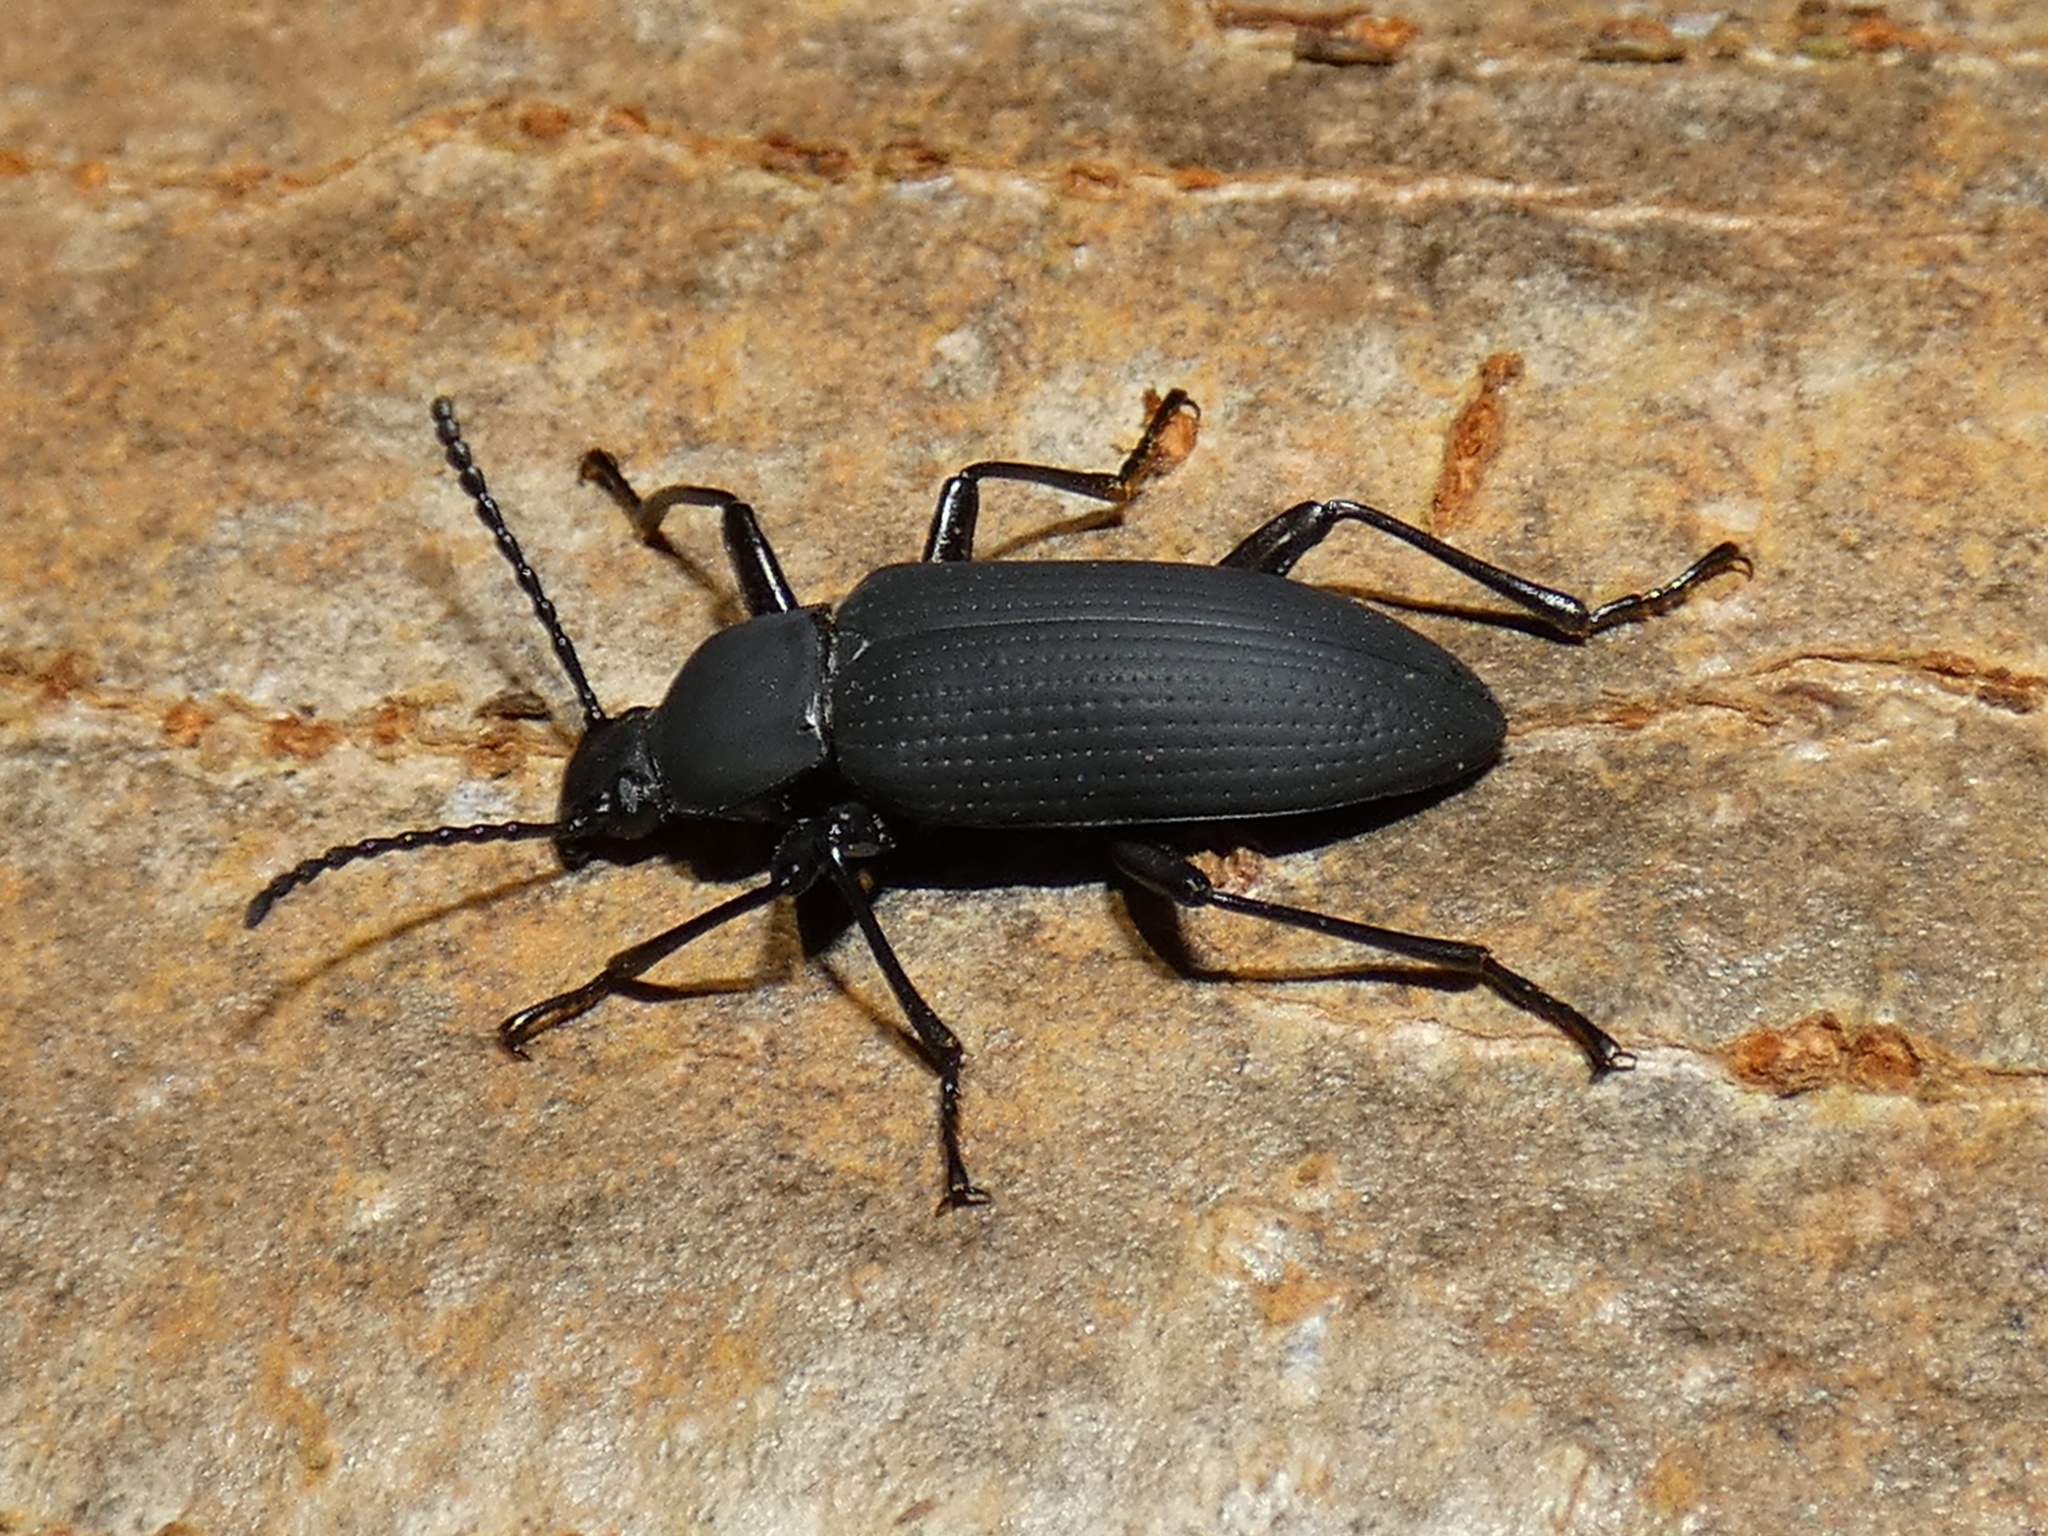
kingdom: Animalia
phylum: Arthropoda
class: Insecta
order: Coleoptera
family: Tenebrionidae
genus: Zophobas
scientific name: Zophobas atratus
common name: Darkling beetle
